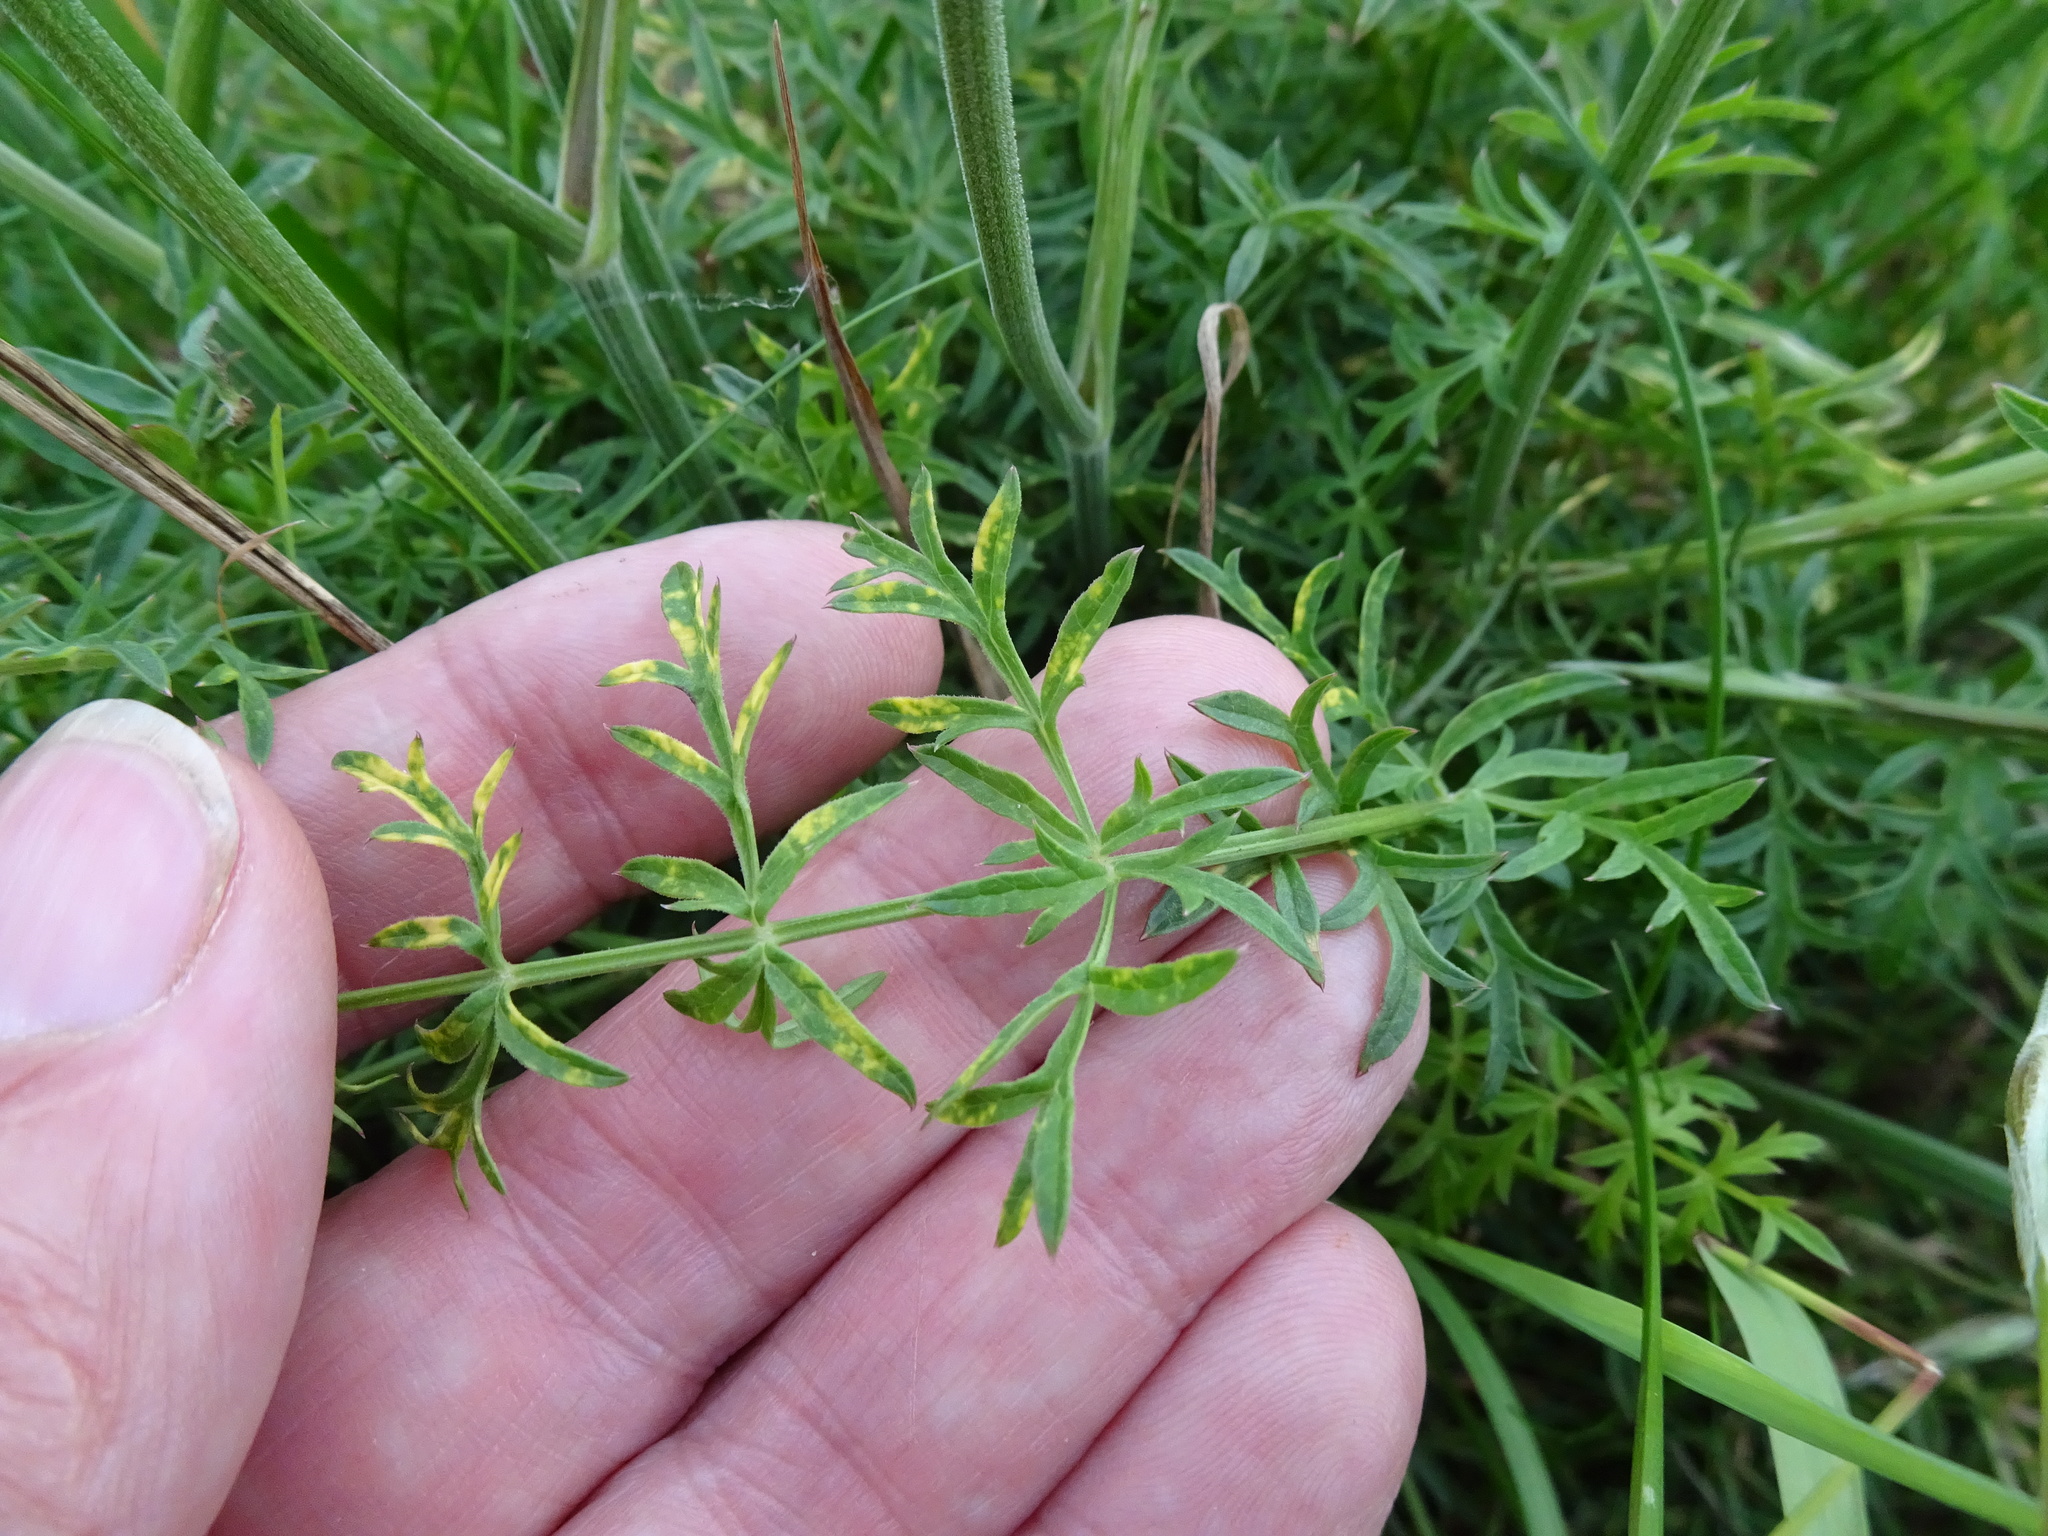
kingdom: Plantae
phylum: Tracheophyta
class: Magnoliopsida
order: Apiales
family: Apiaceae
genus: Pimpinella
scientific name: Pimpinella saxifraga
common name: Burnet-saxifrage
